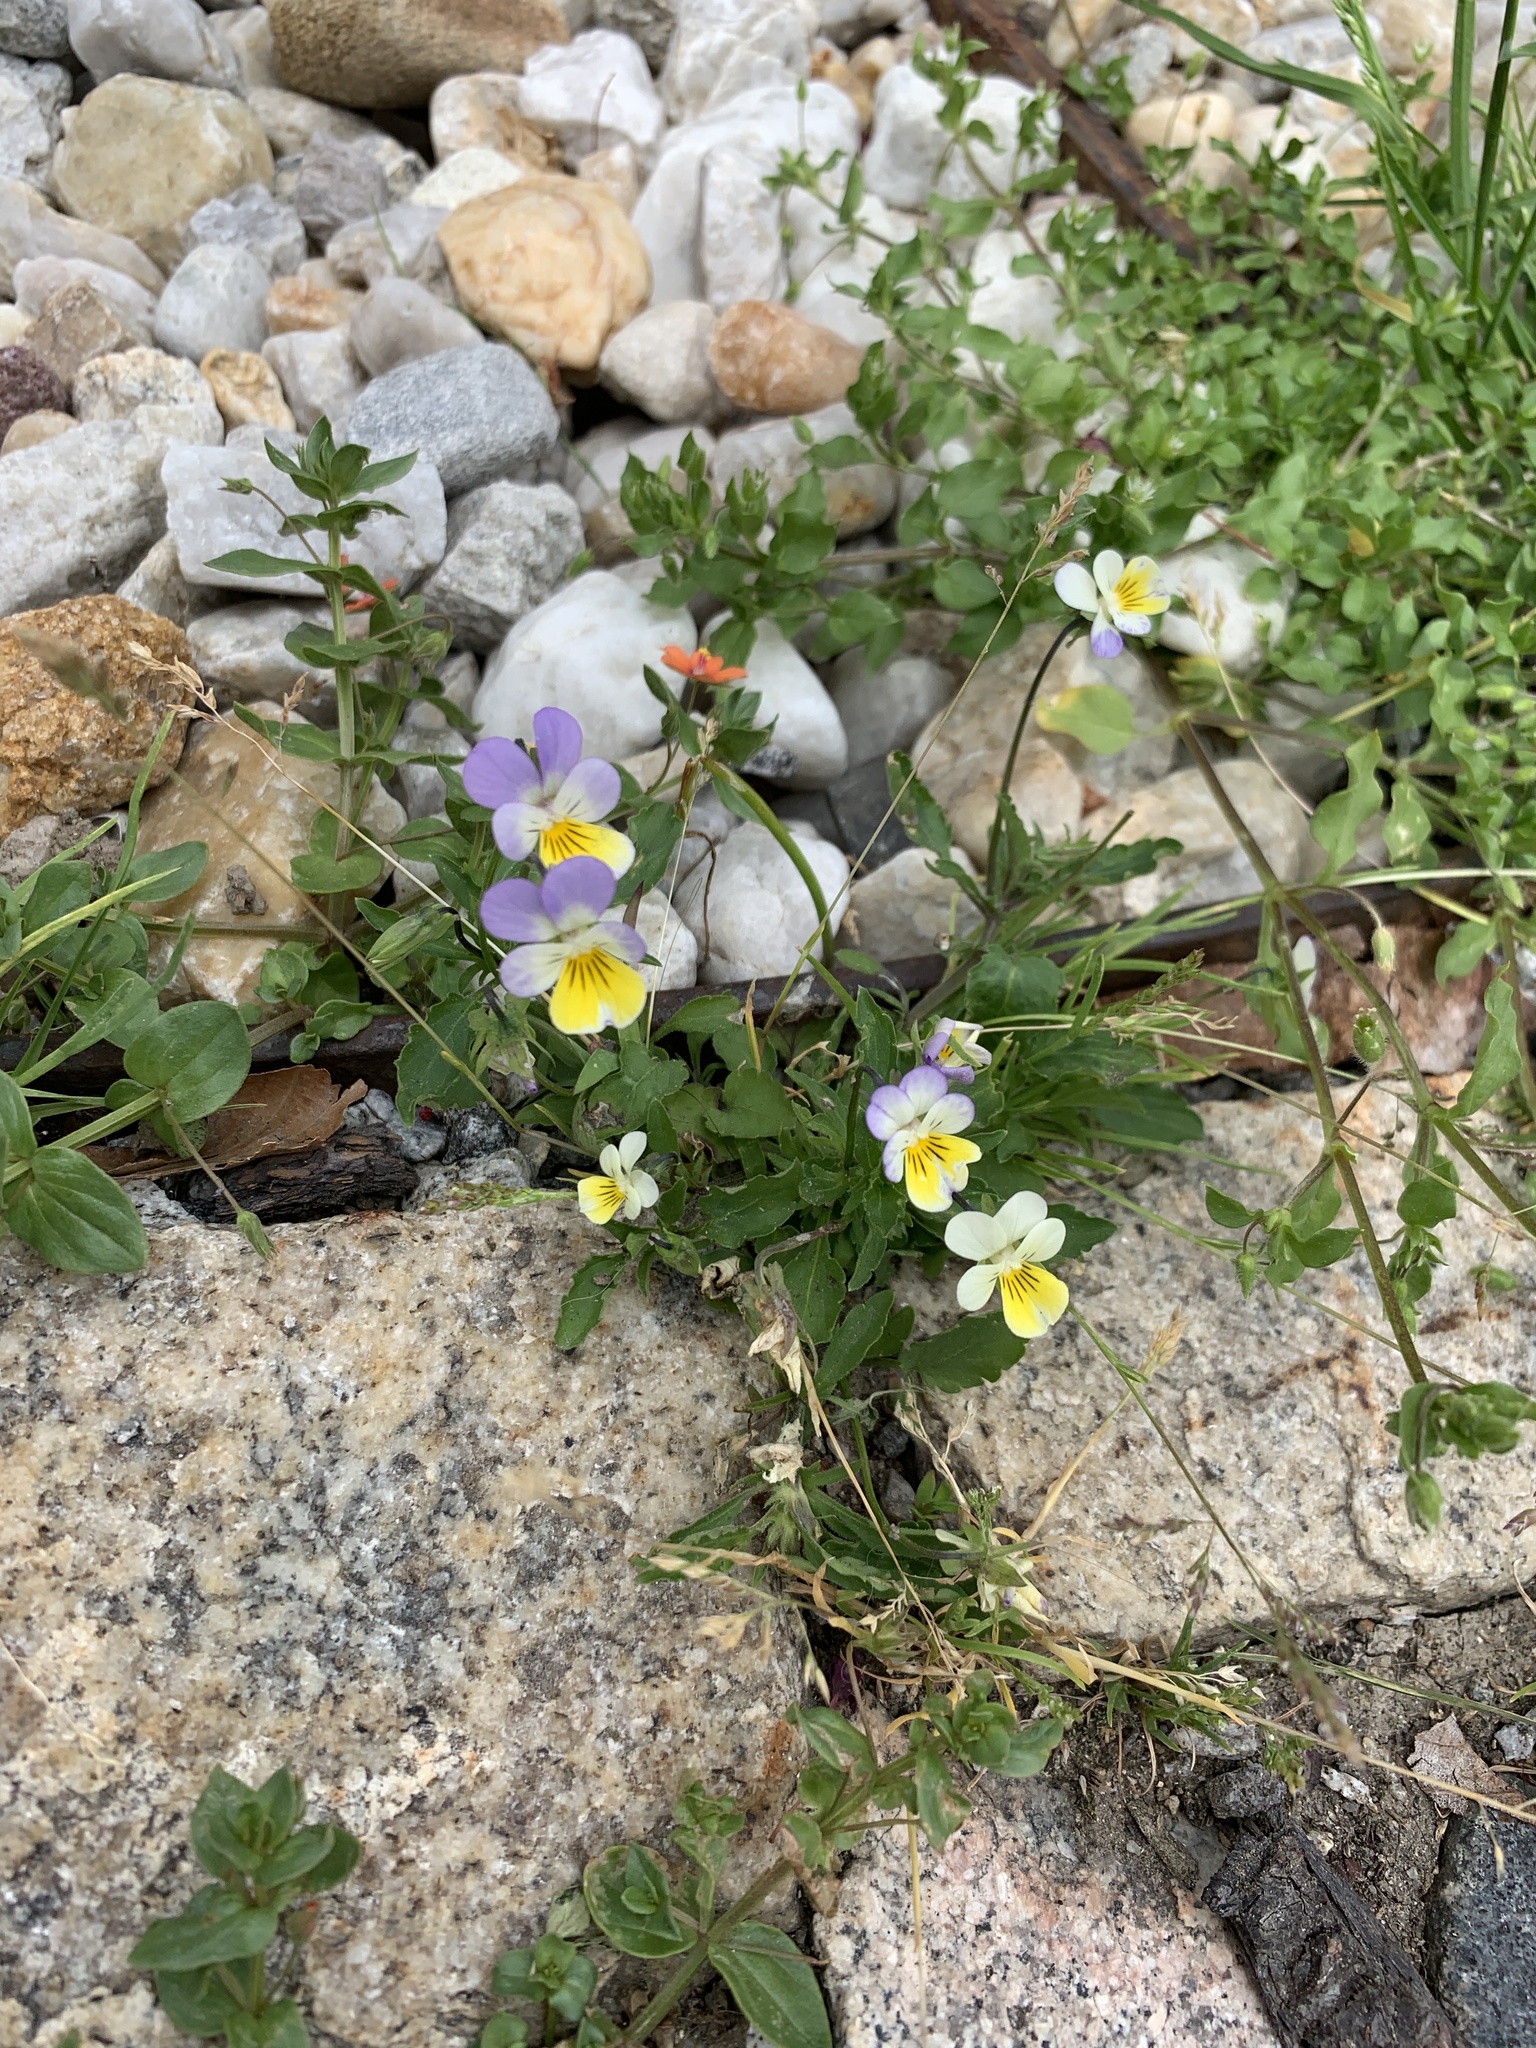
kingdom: Plantae
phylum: Tracheophyta
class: Magnoliopsida
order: Malpighiales
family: Violaceae
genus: Viola
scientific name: Viola tricolor
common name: Pansy
